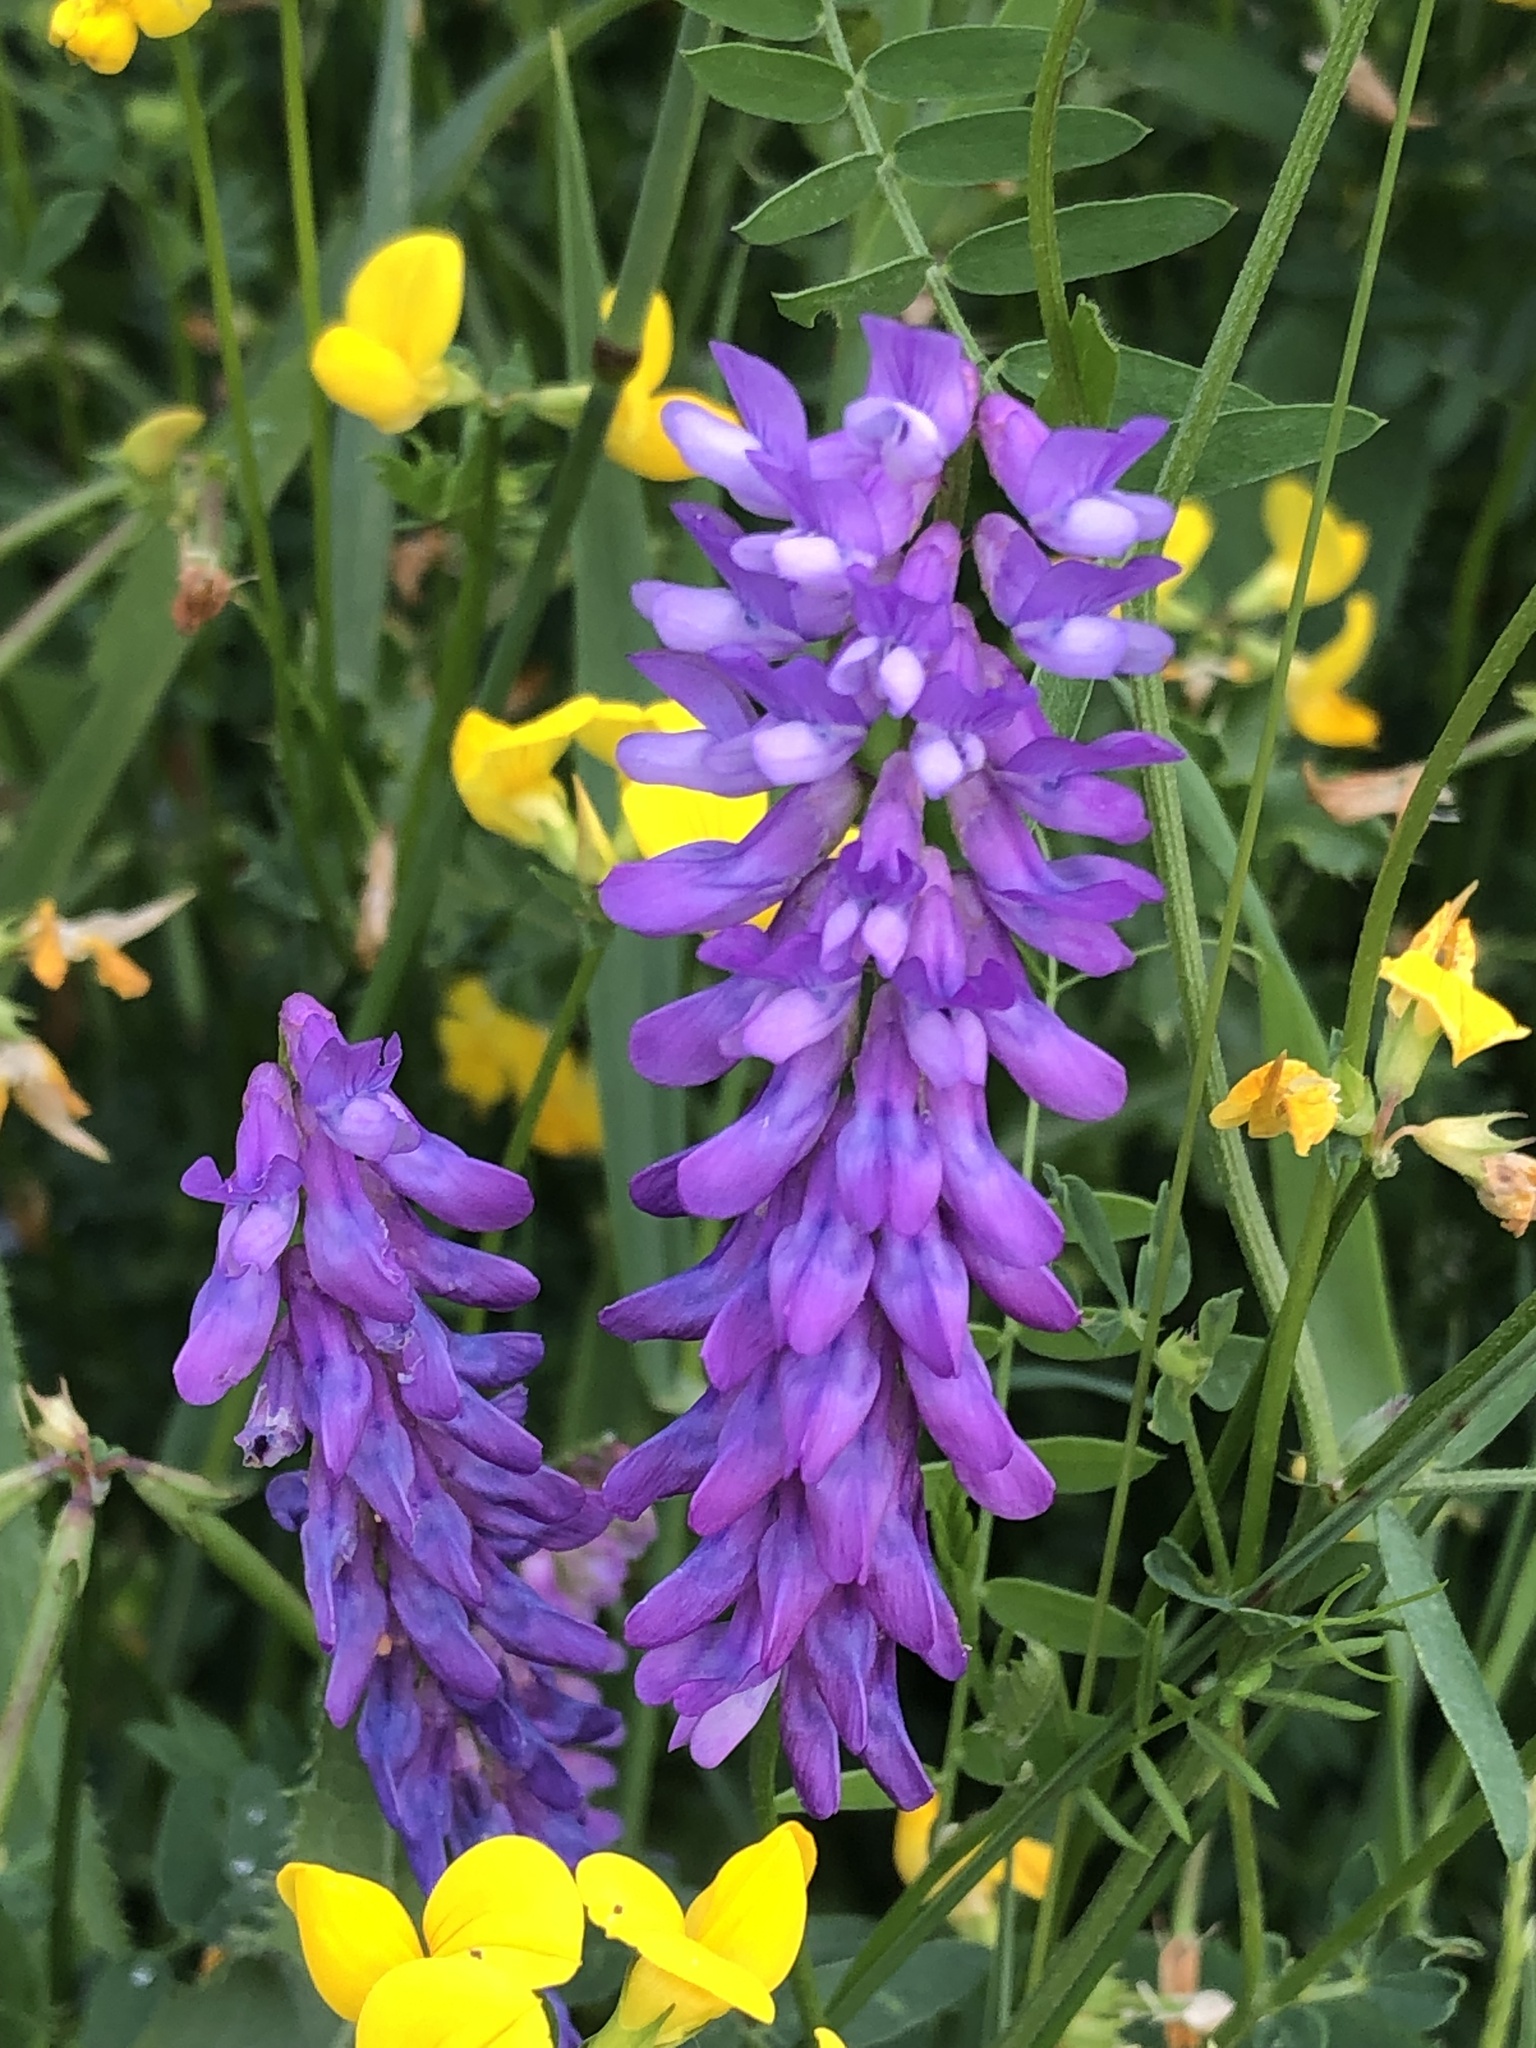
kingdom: Plantae
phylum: Tracheophyta
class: Magnoliopsida
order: Fabales
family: Fabaceae
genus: Vicia
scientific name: Vicia cracca
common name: Bird vetch
